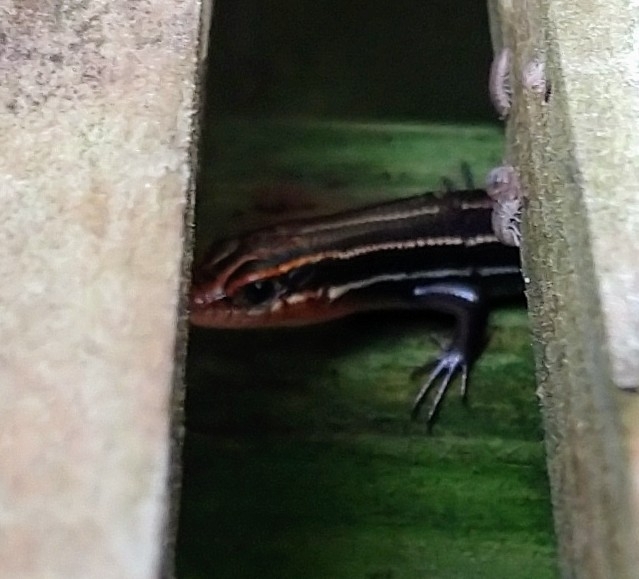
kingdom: Animalia
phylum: Chordata
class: Squamata
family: Scincidae
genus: Plestiodon
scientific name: Plestiodon inexpectatus
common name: Southeastern five-lined skink
